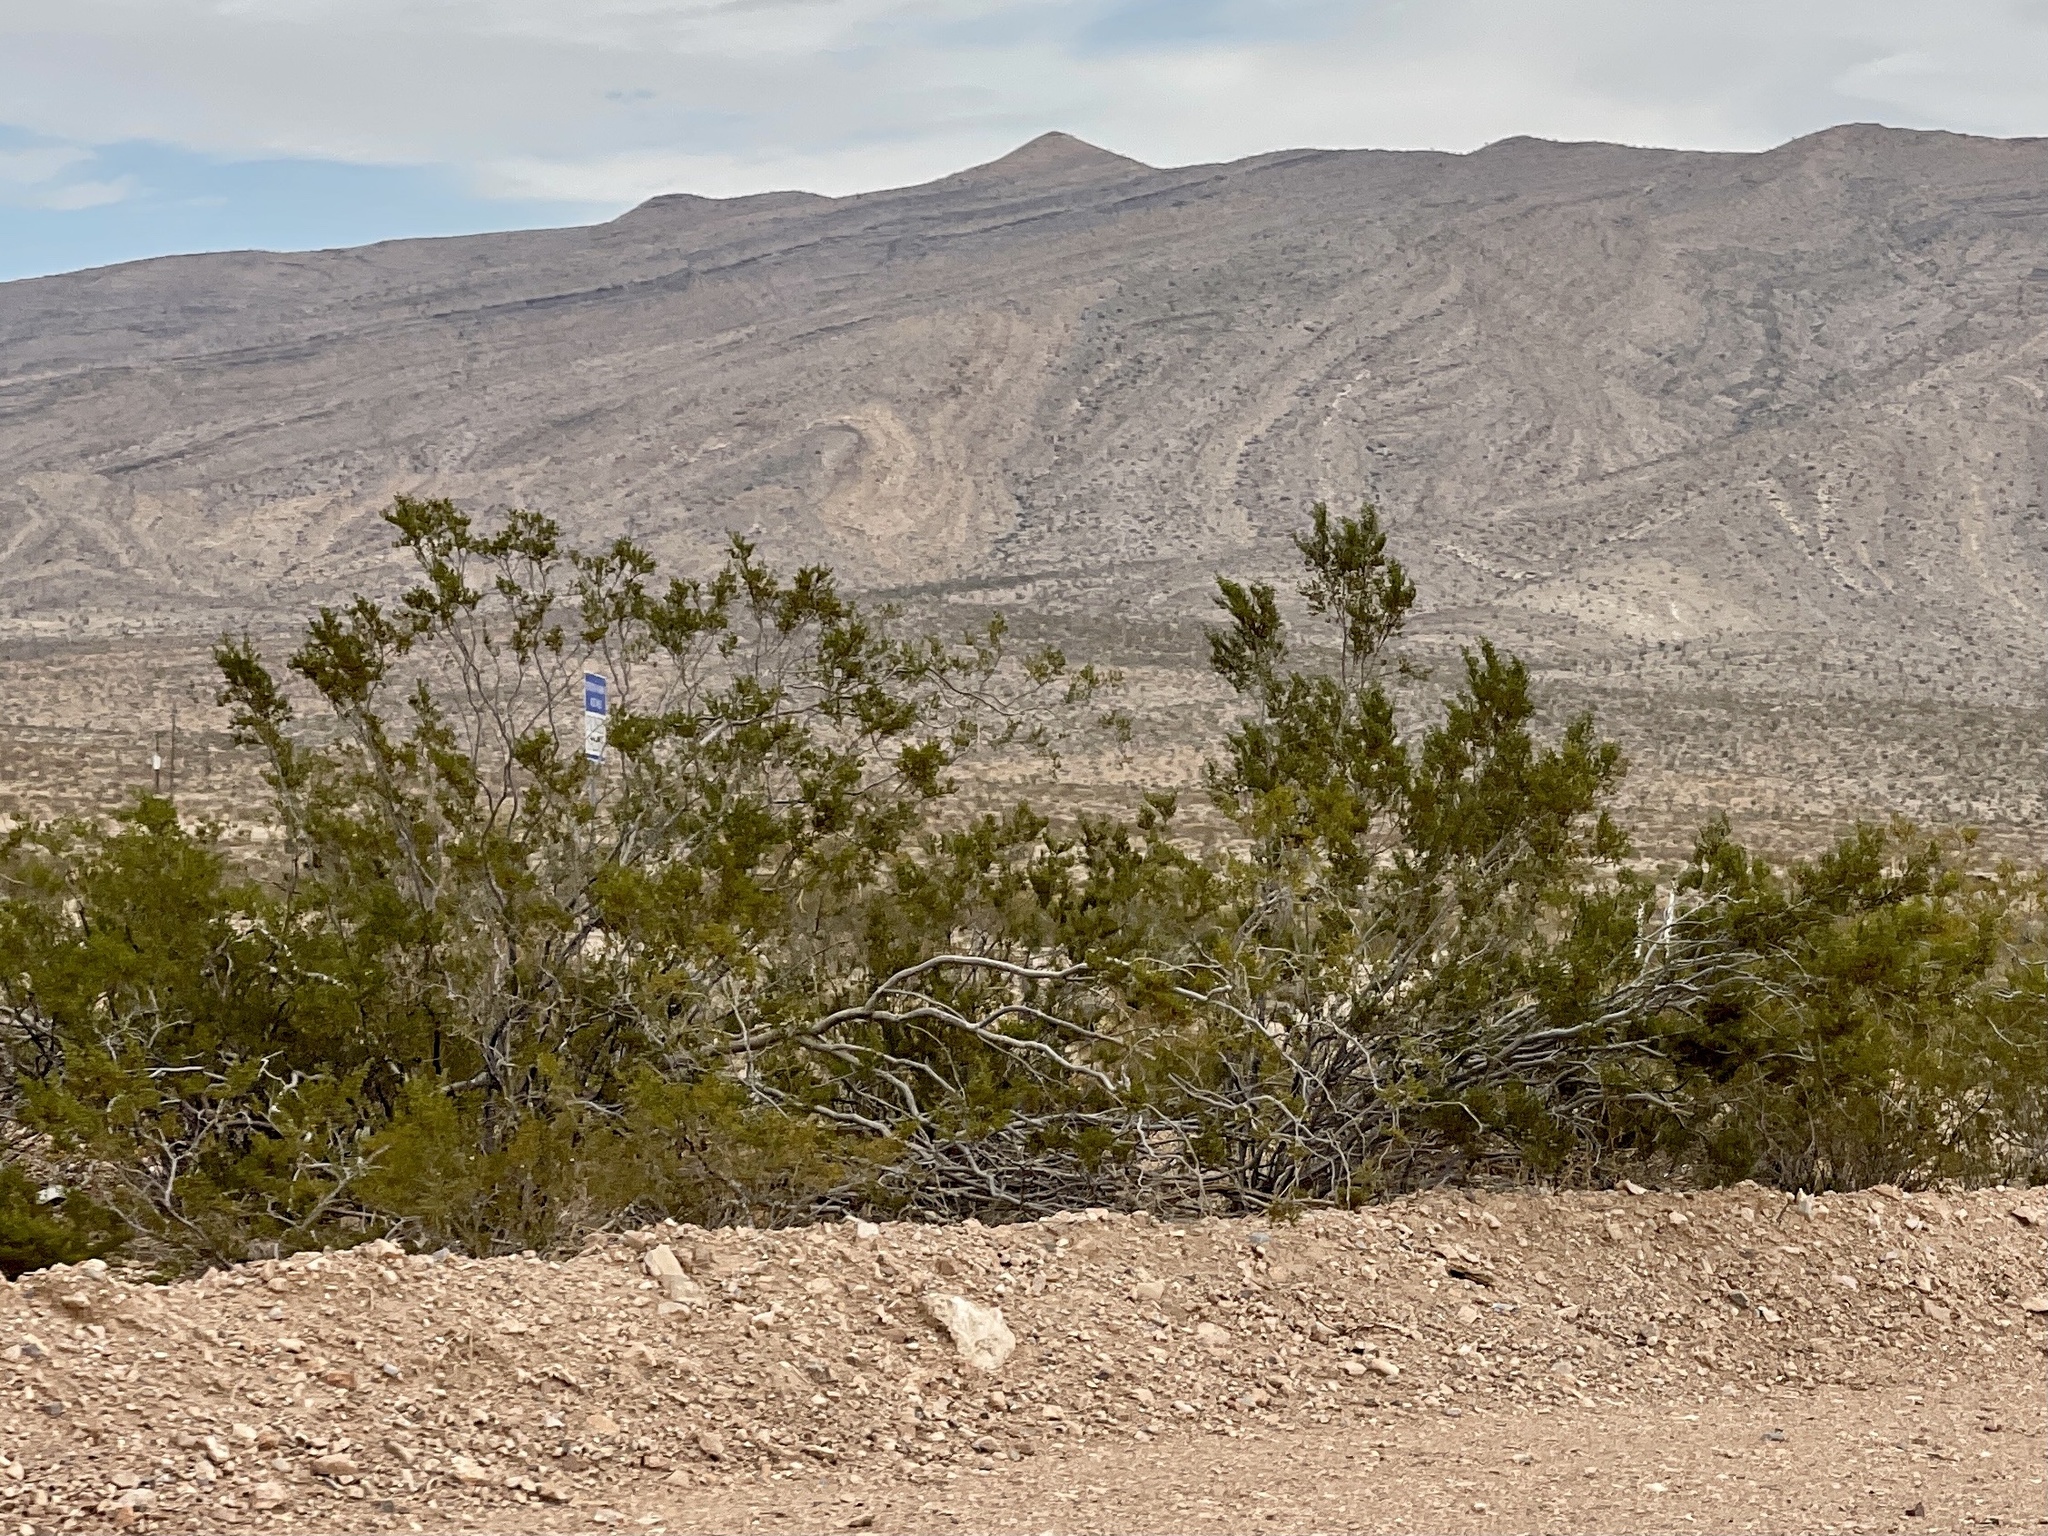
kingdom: Plantae
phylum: Tracheophyta
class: Magnoliopsida
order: Zygophyllales
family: Zygophyllaceae
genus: Larrea
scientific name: Larrea tridentata
